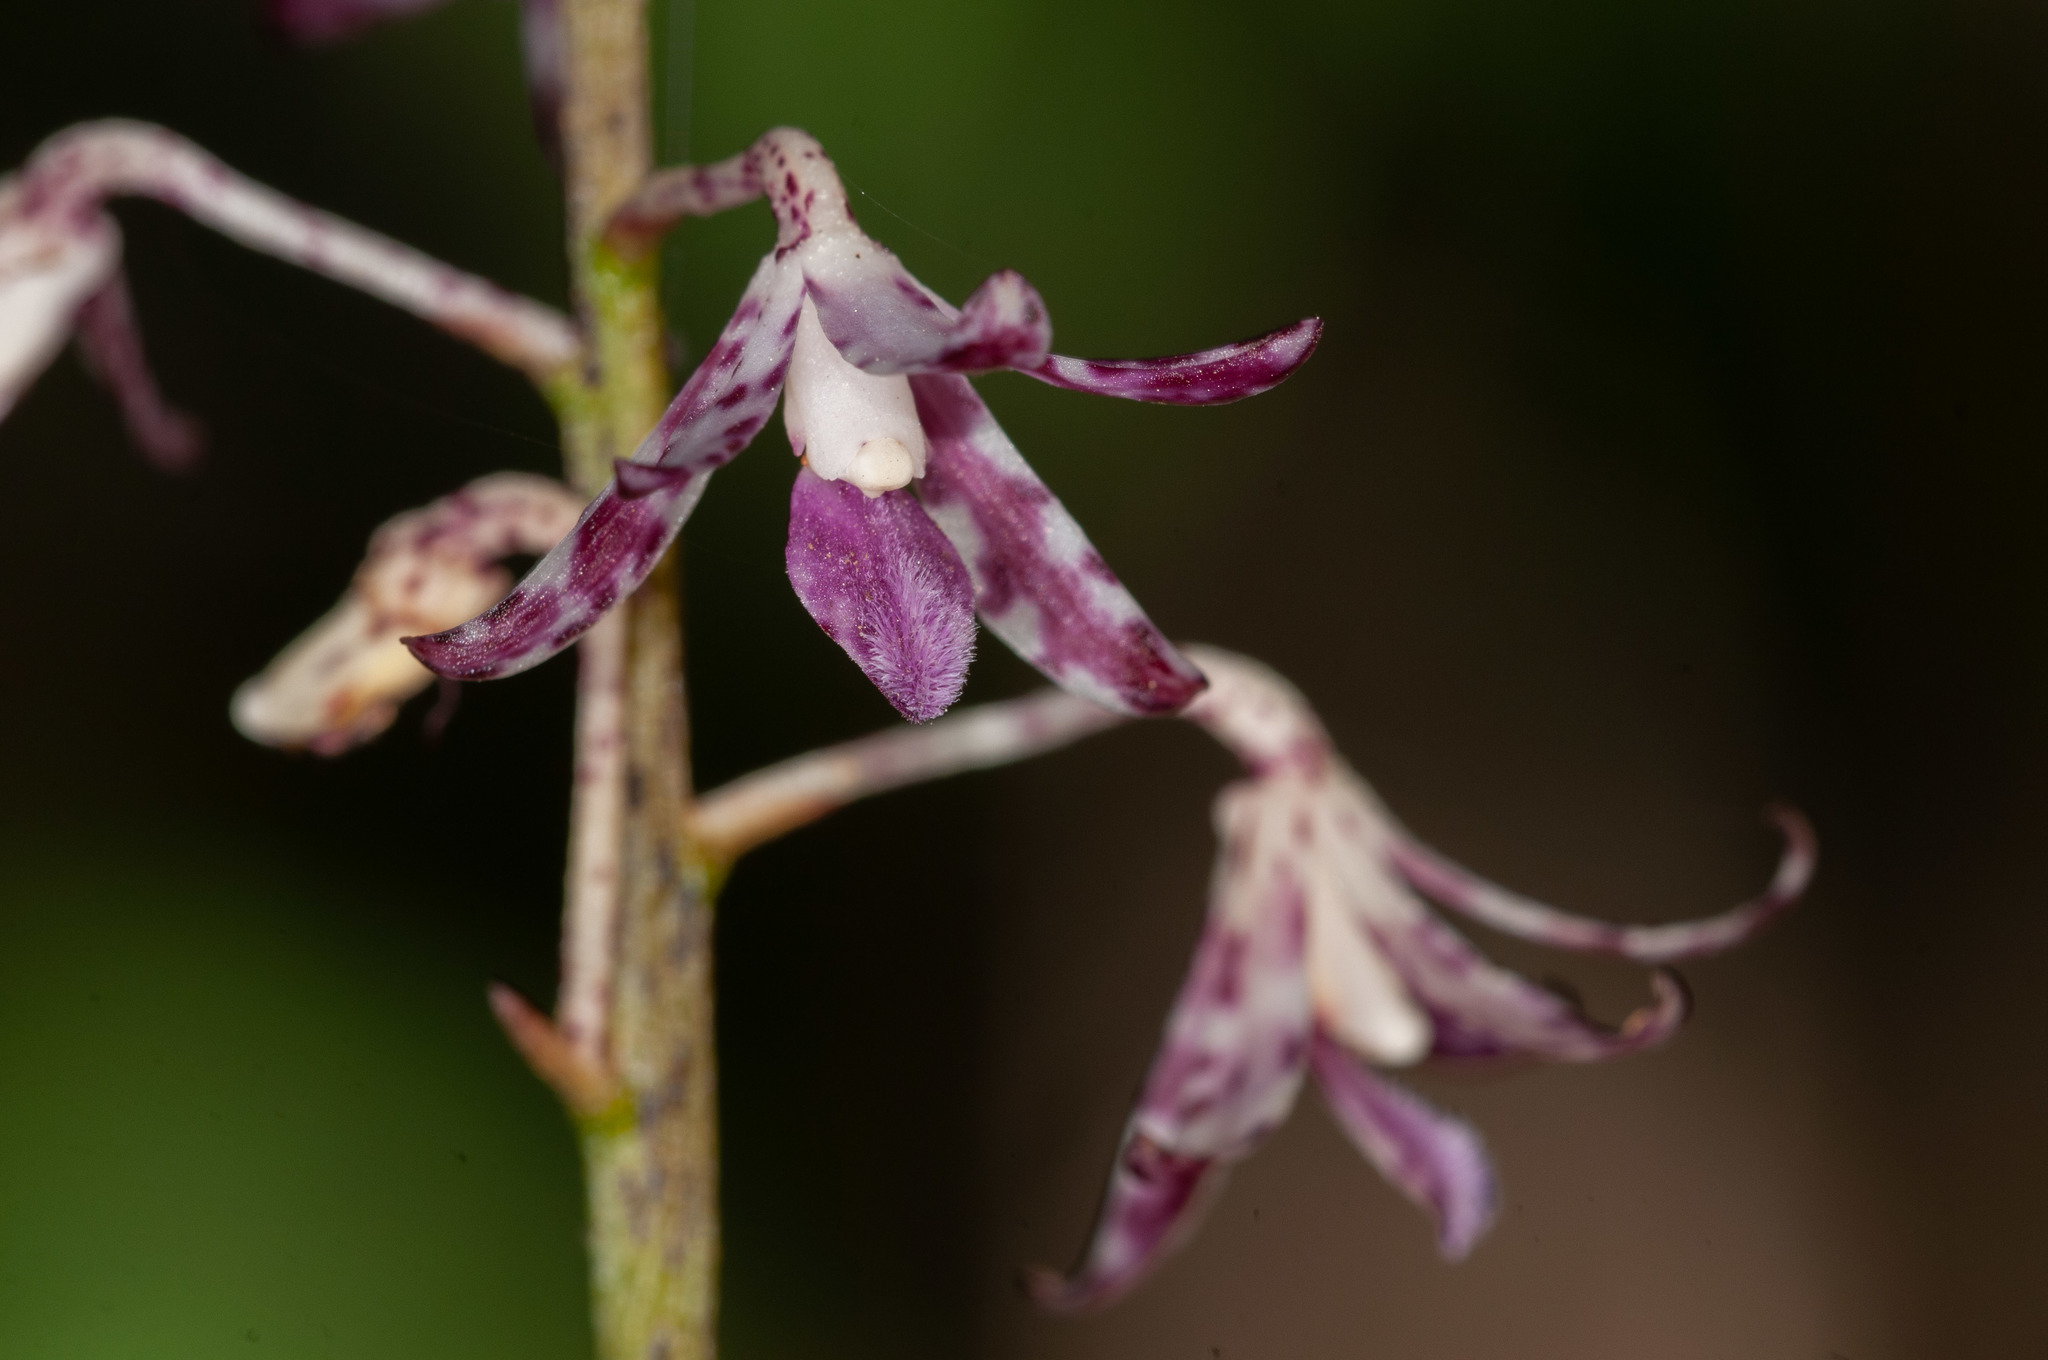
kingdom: Plantae
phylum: Tracheophyta
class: Liliopsida
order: Asparagales
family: Orchidaceae
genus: Dipodium
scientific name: Dipodium variegatum
